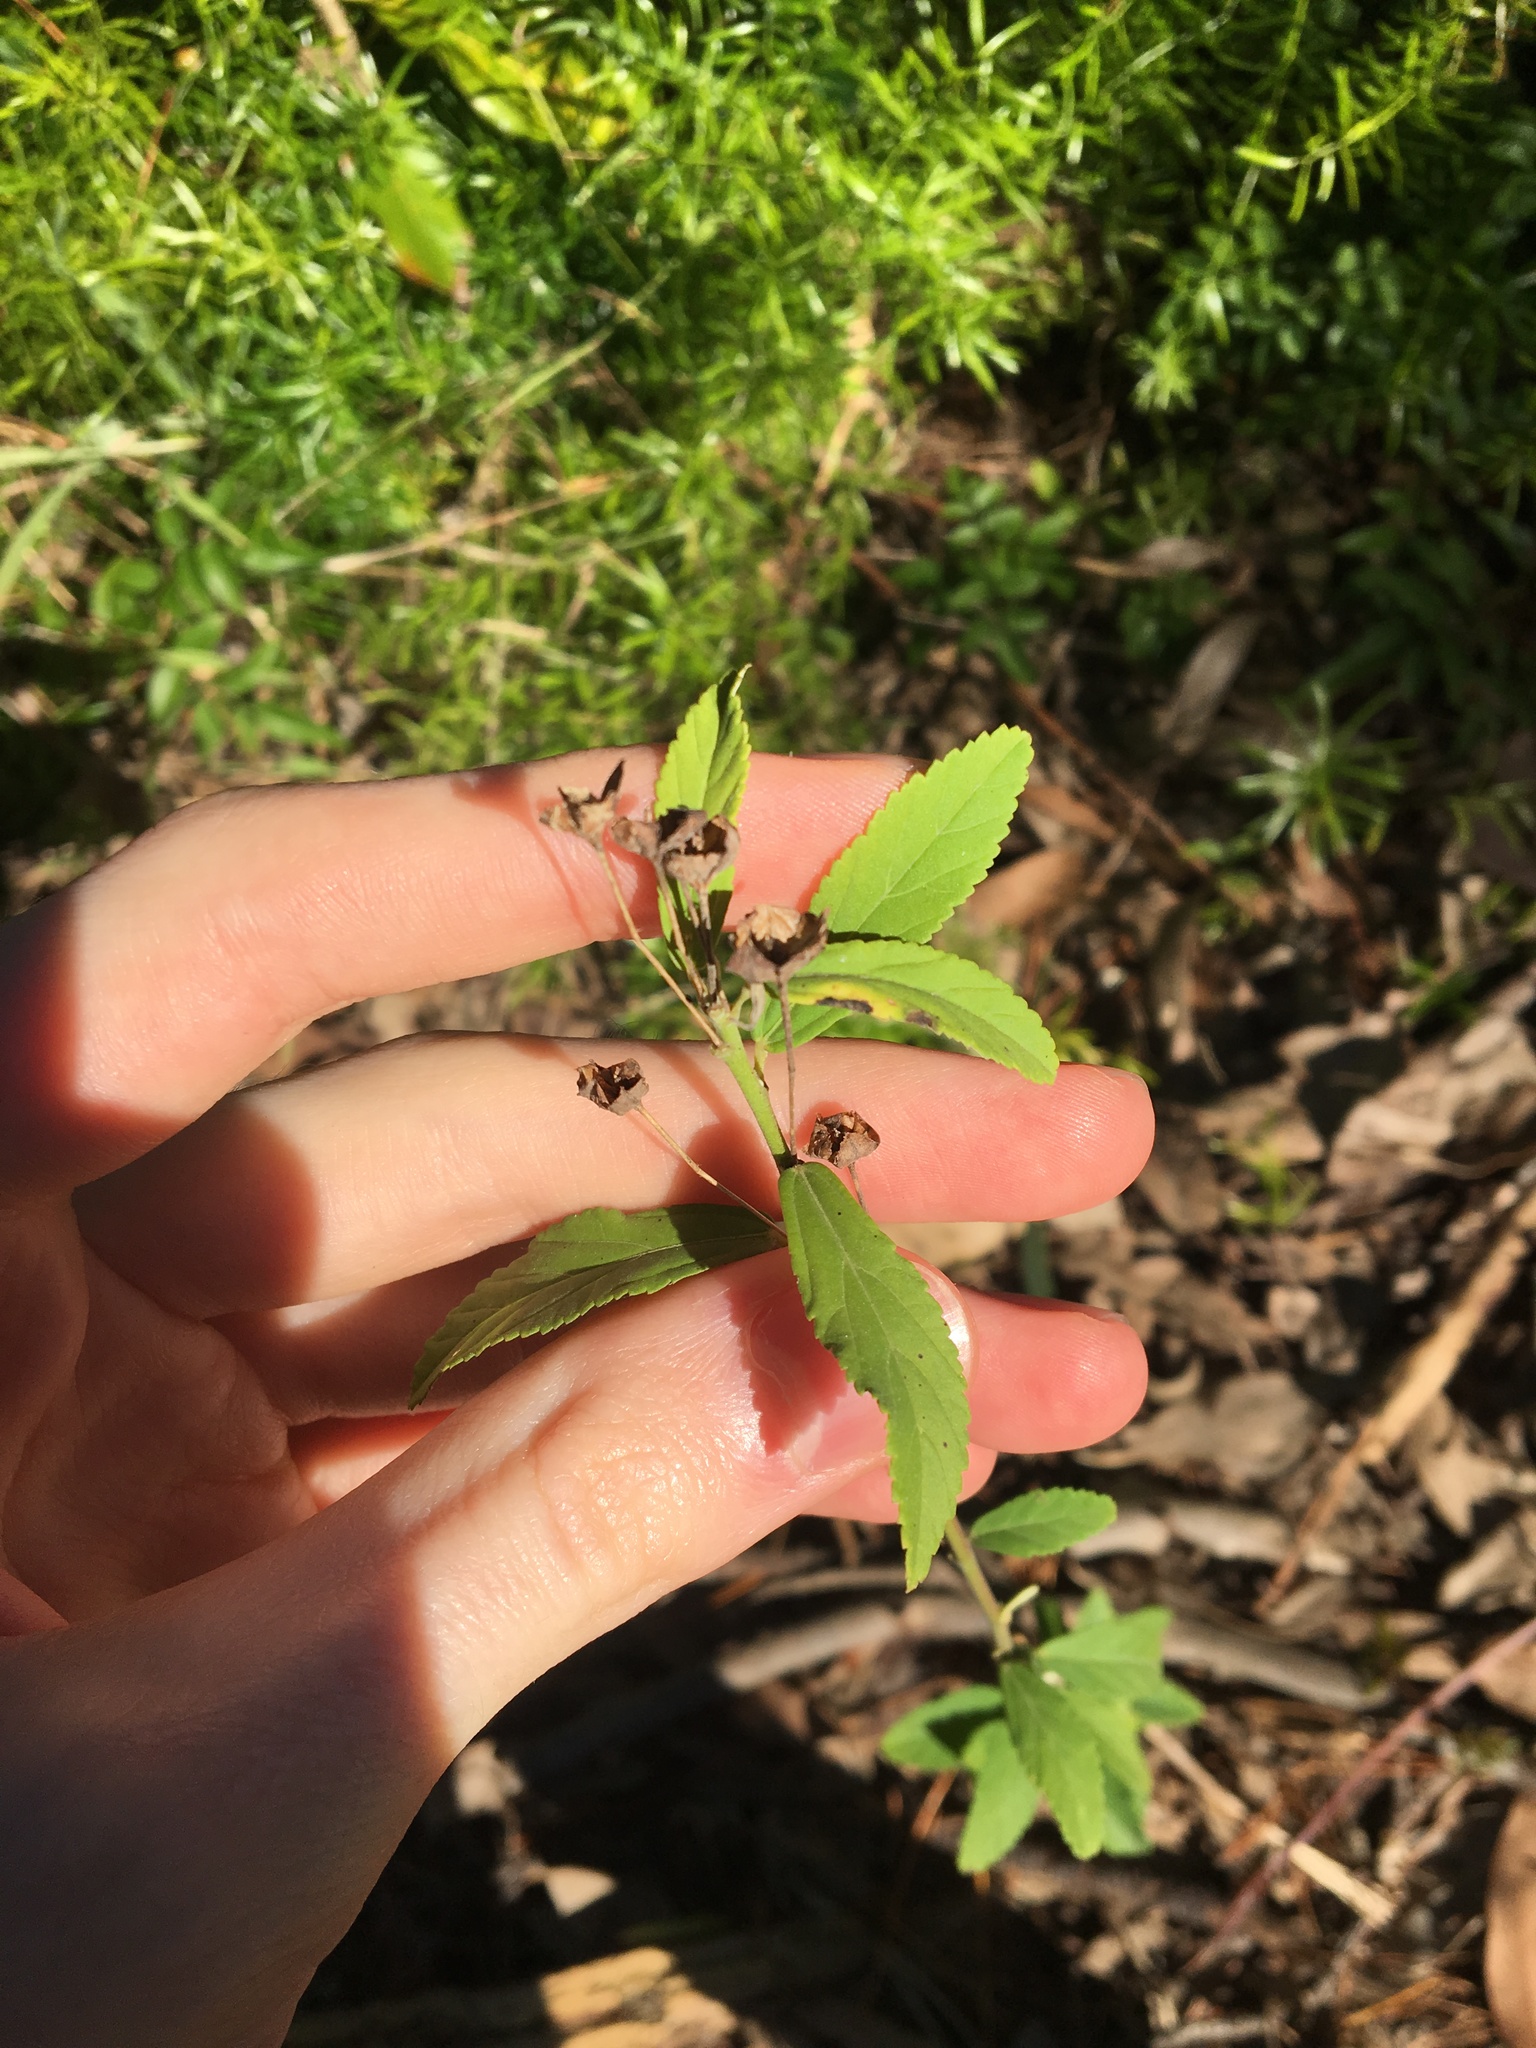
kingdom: Plantae
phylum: Tracheophyta
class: Magnoliopsida
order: Malvales
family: Malvaceae
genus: Sida
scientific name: Sida rhombifolia
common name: Queensland-hemp
